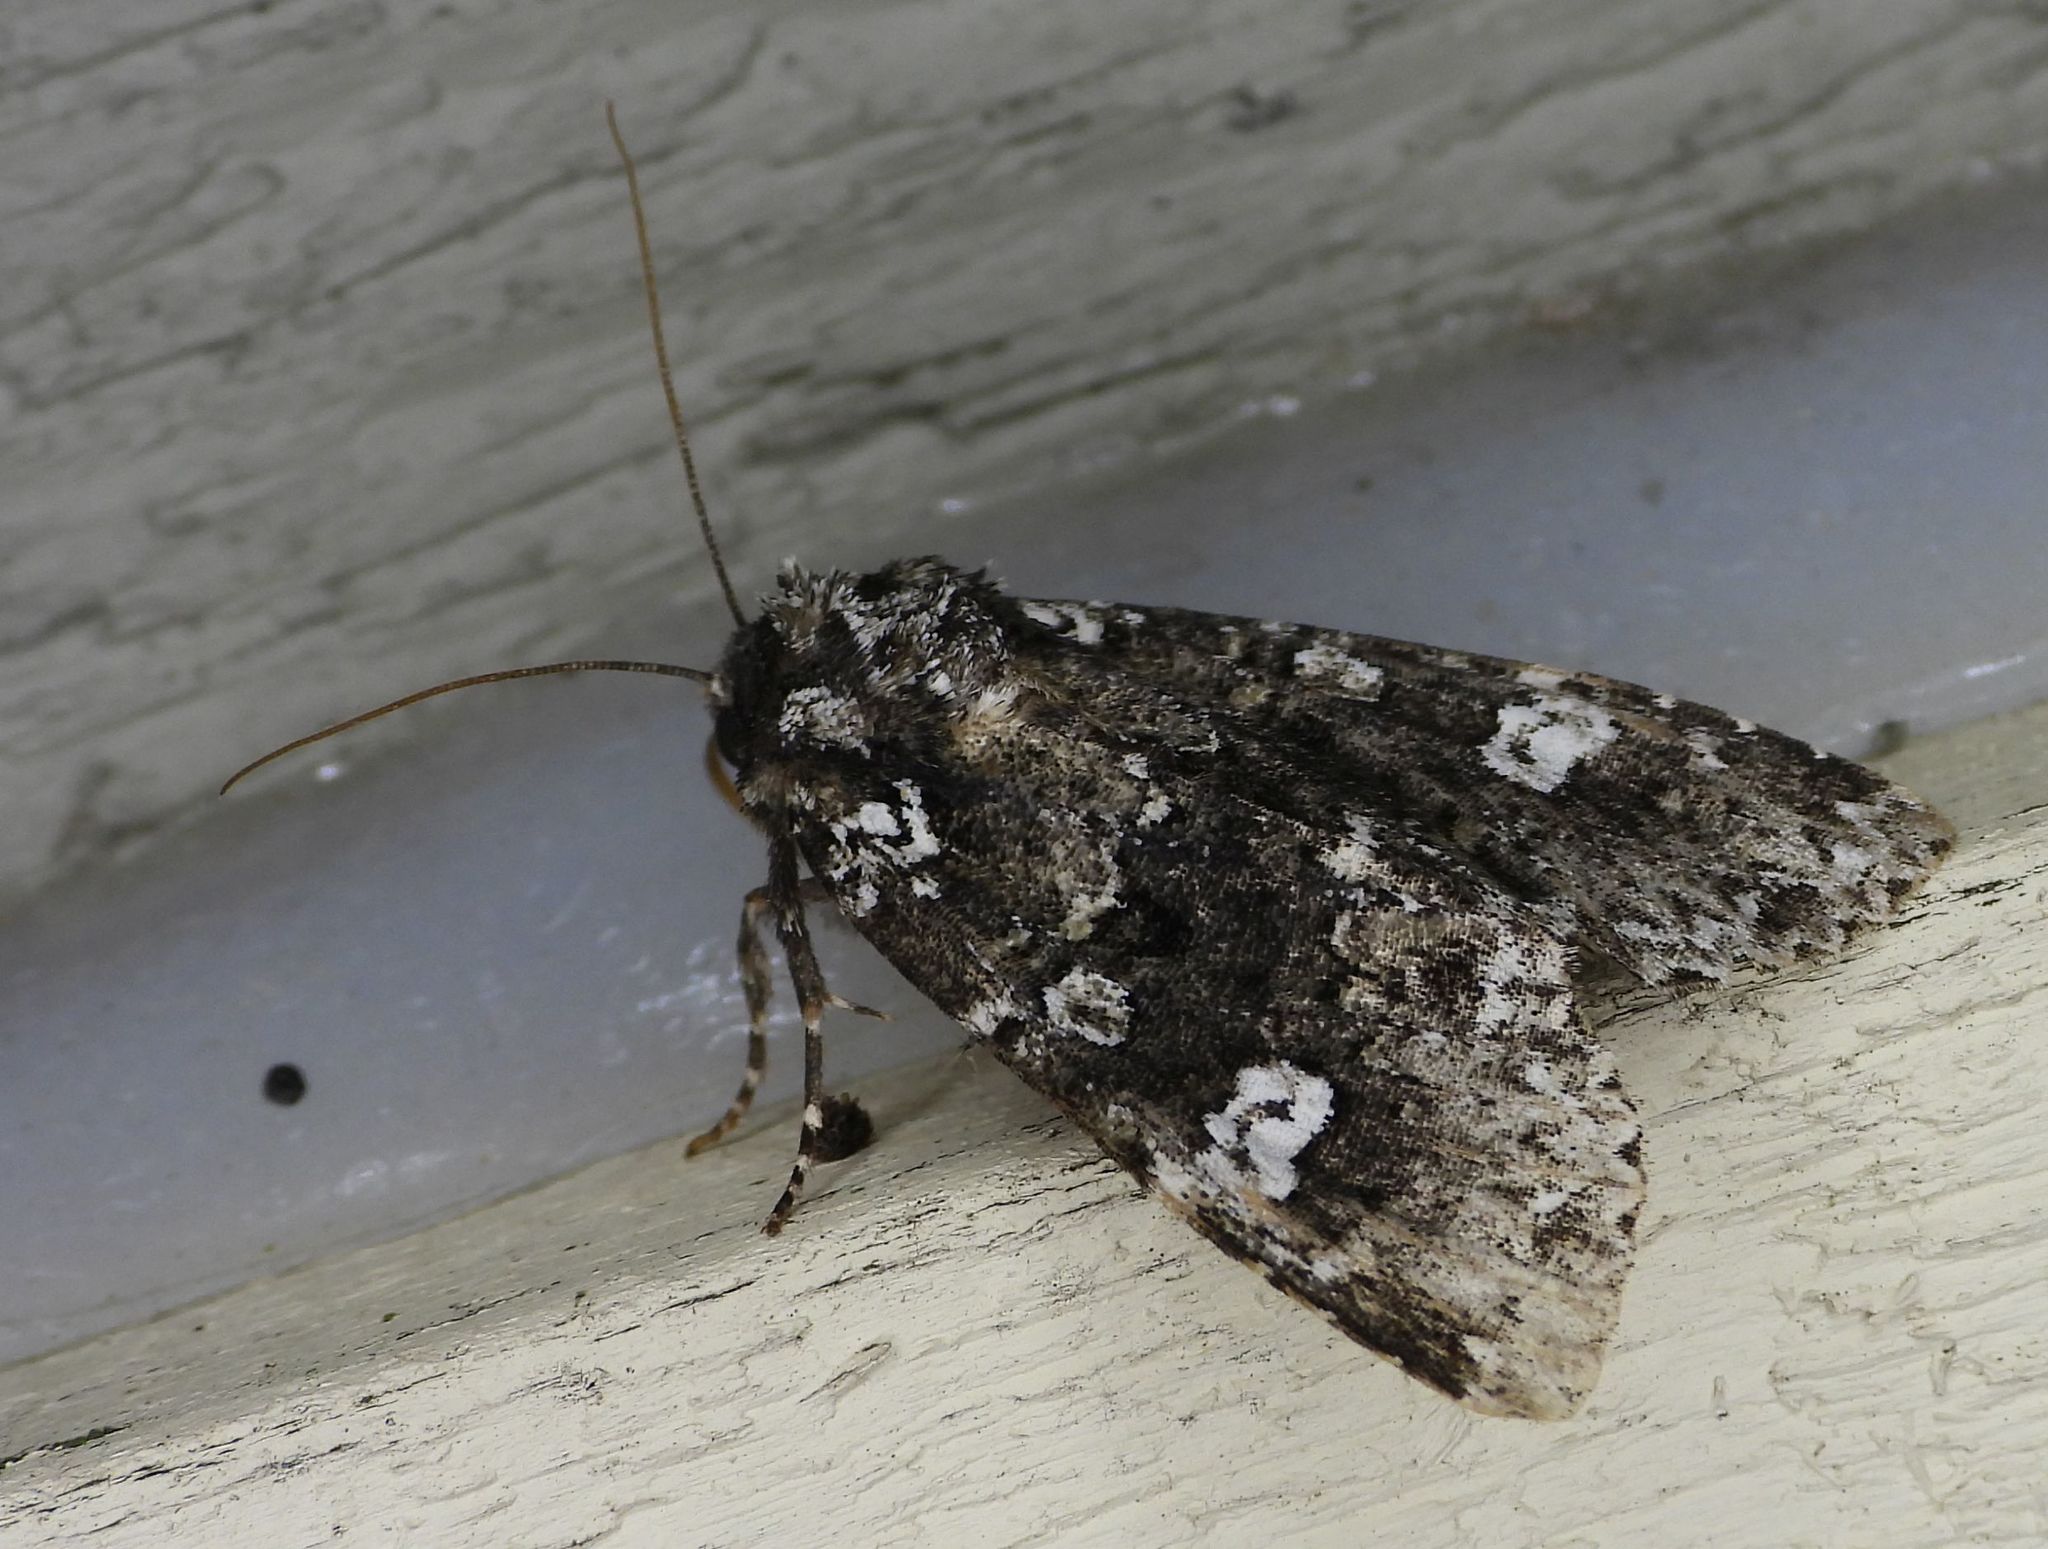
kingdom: Animalia
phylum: Arthropoda
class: Insecta
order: Lepidoptera
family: Noctuidae
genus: Melanchra
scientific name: Melanchra adjuncta
